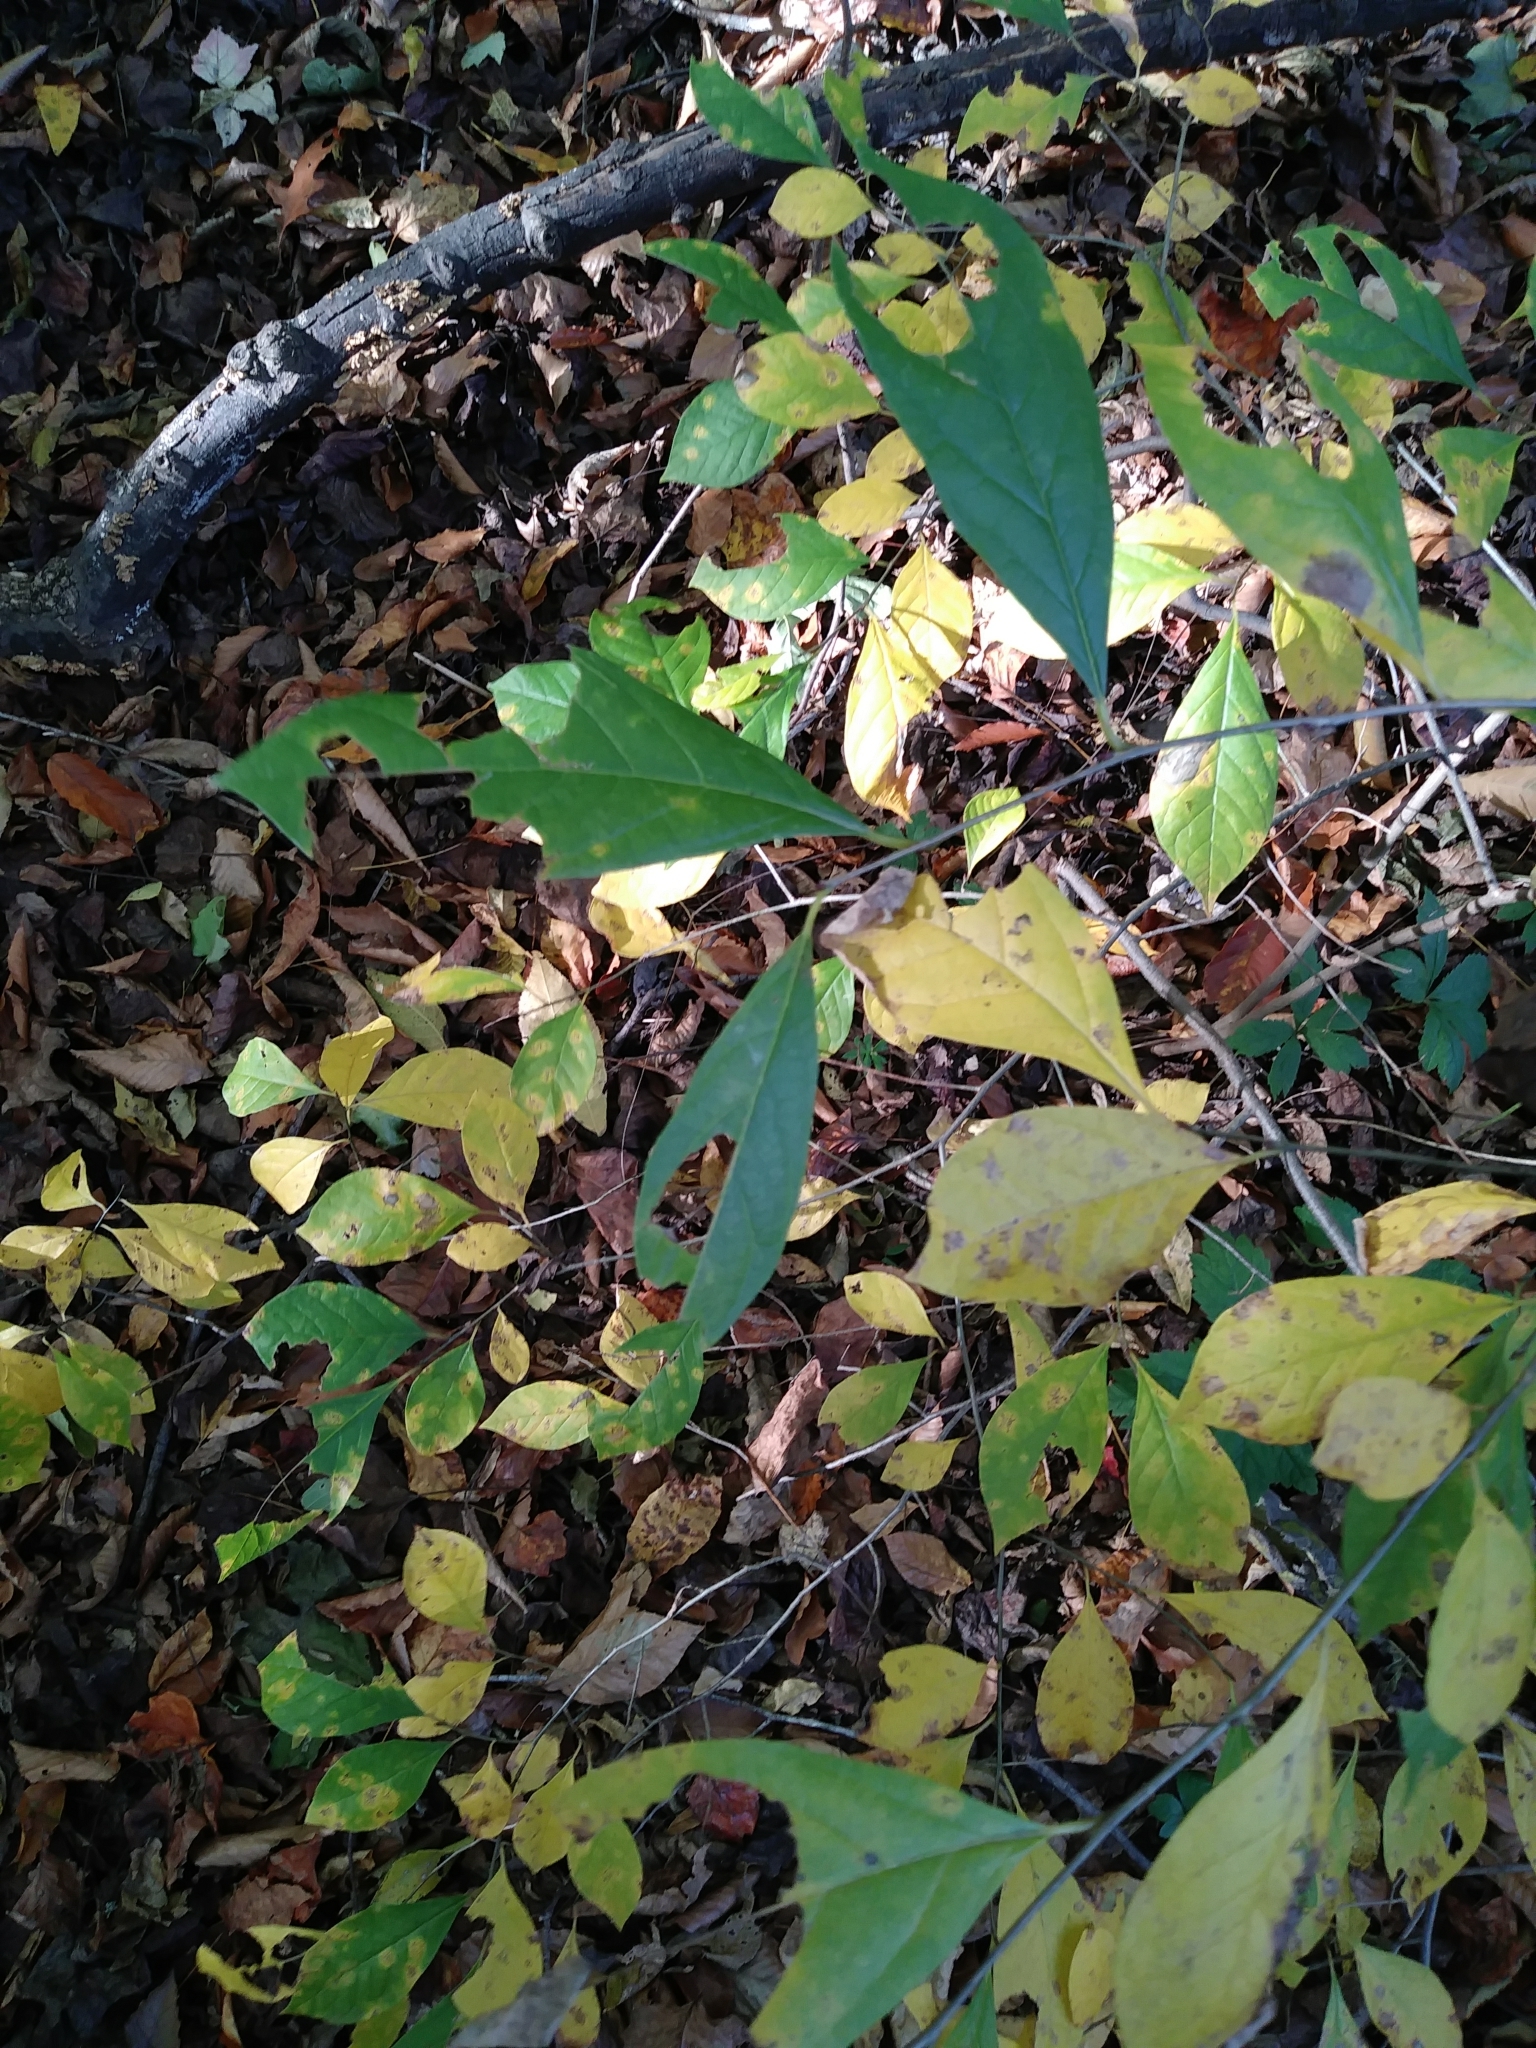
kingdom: Plantae
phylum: Tracheophyta
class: Magnoliopsida
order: Laurales
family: Lauraceae
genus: Lindera
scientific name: Lindera benzoin
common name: Spicebush
